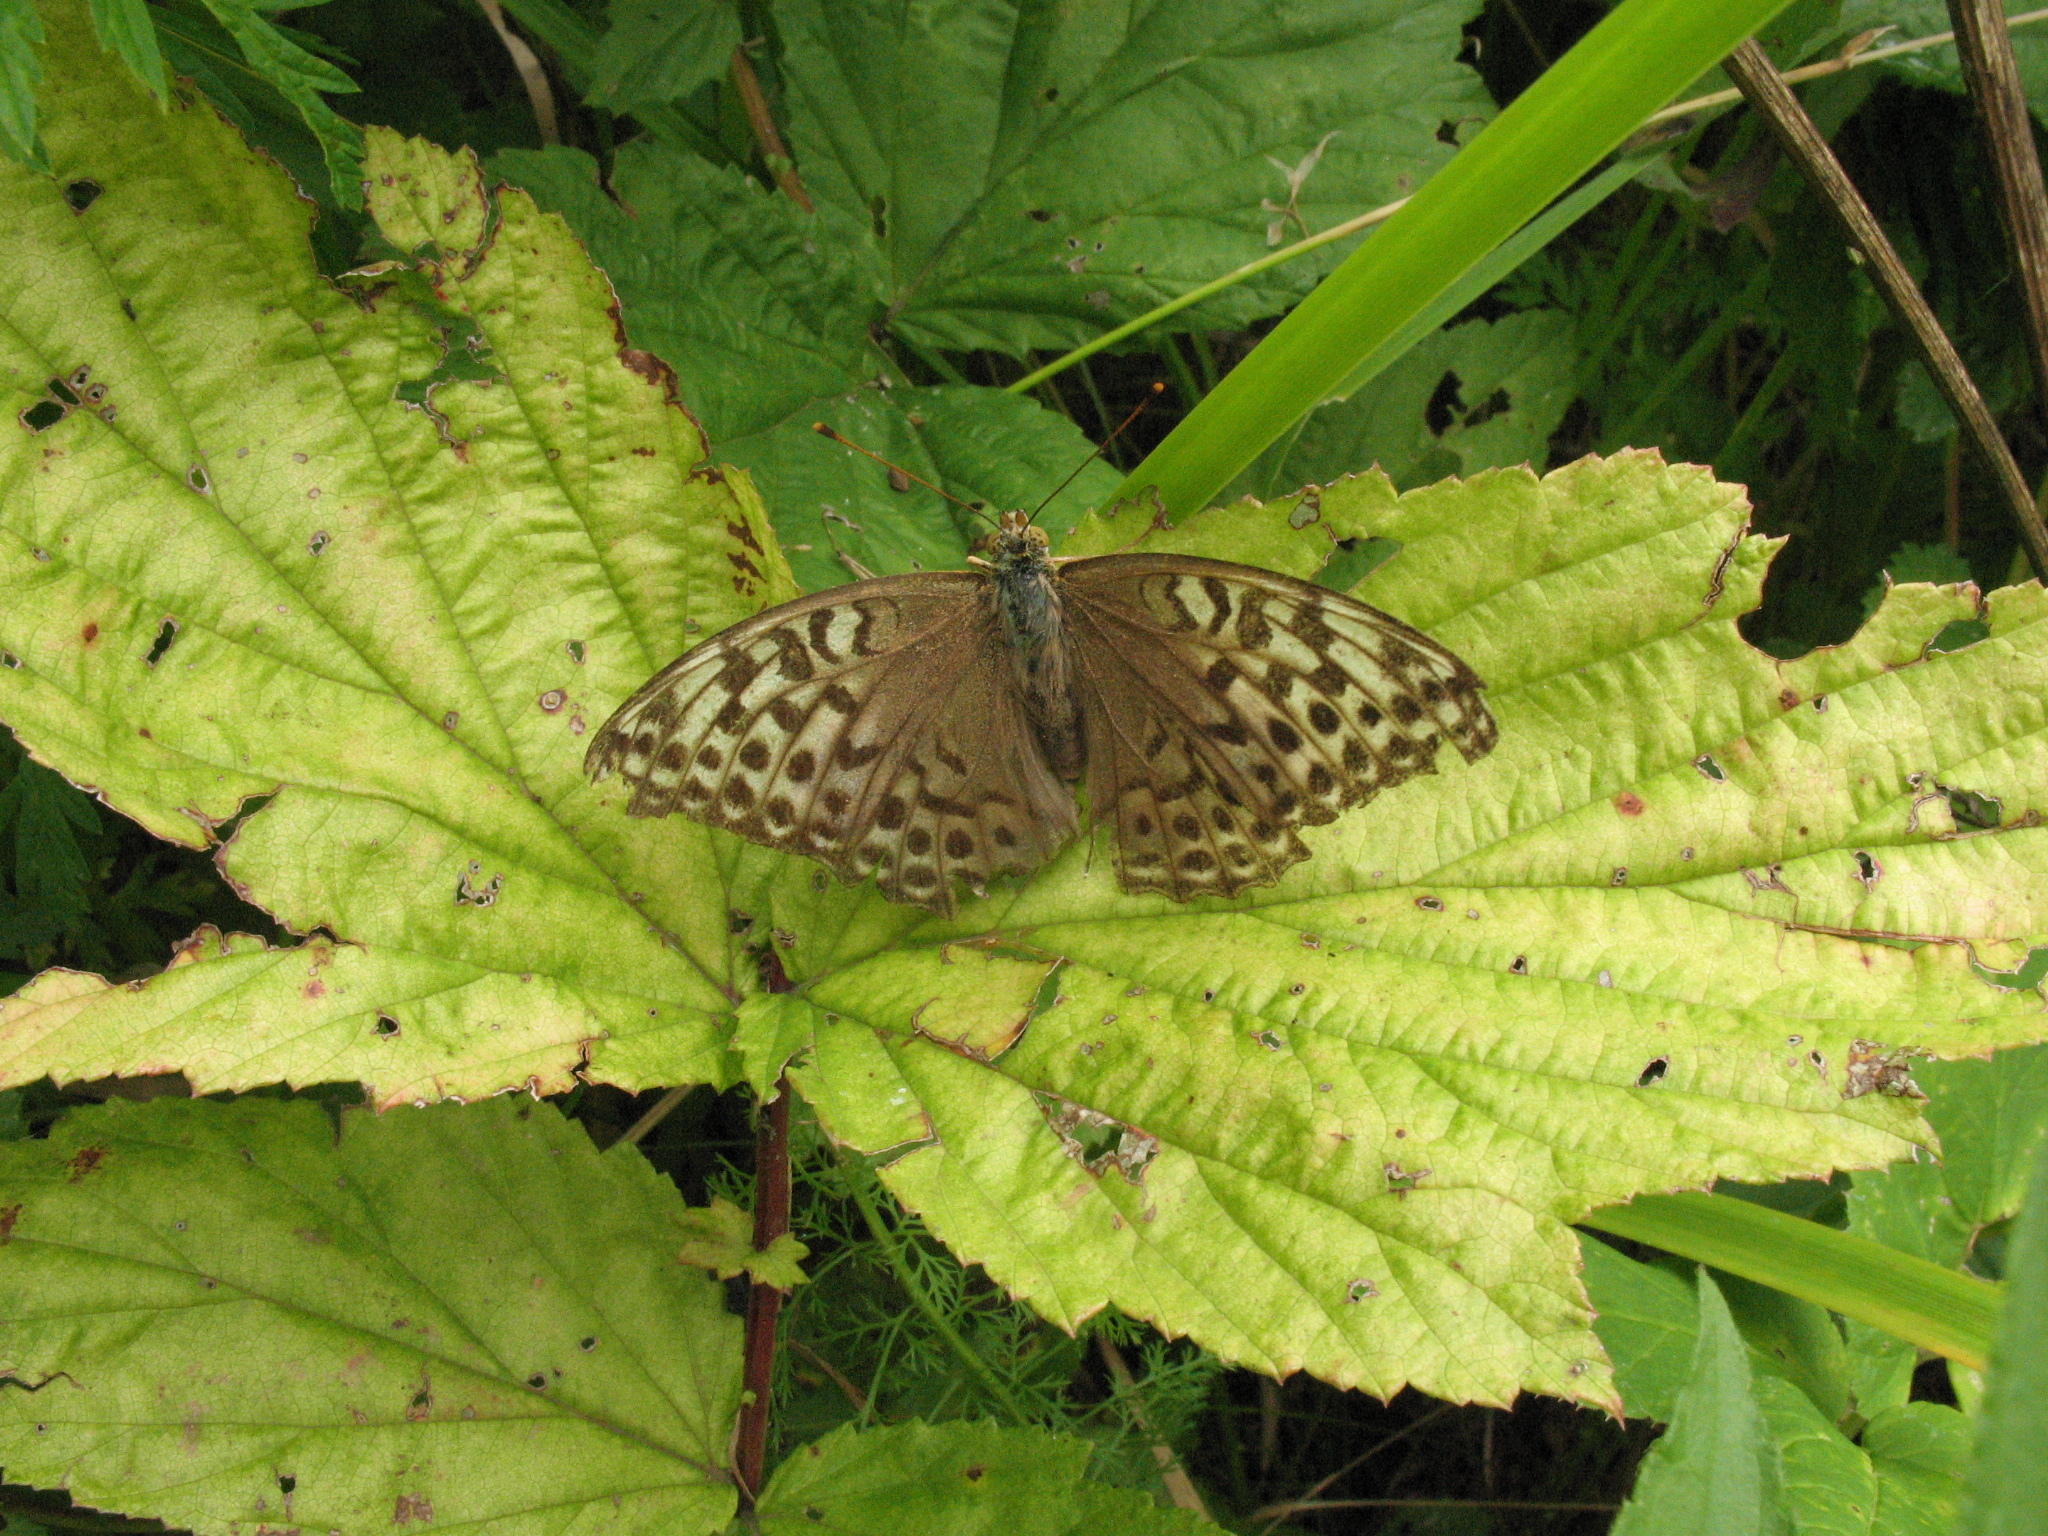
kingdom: Animalia
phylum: Arthropoda
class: Insecta
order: Lepidoptera
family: Nymphalidae
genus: Argynnis
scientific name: Argynnis paphia
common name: Silver-washed fritillary
